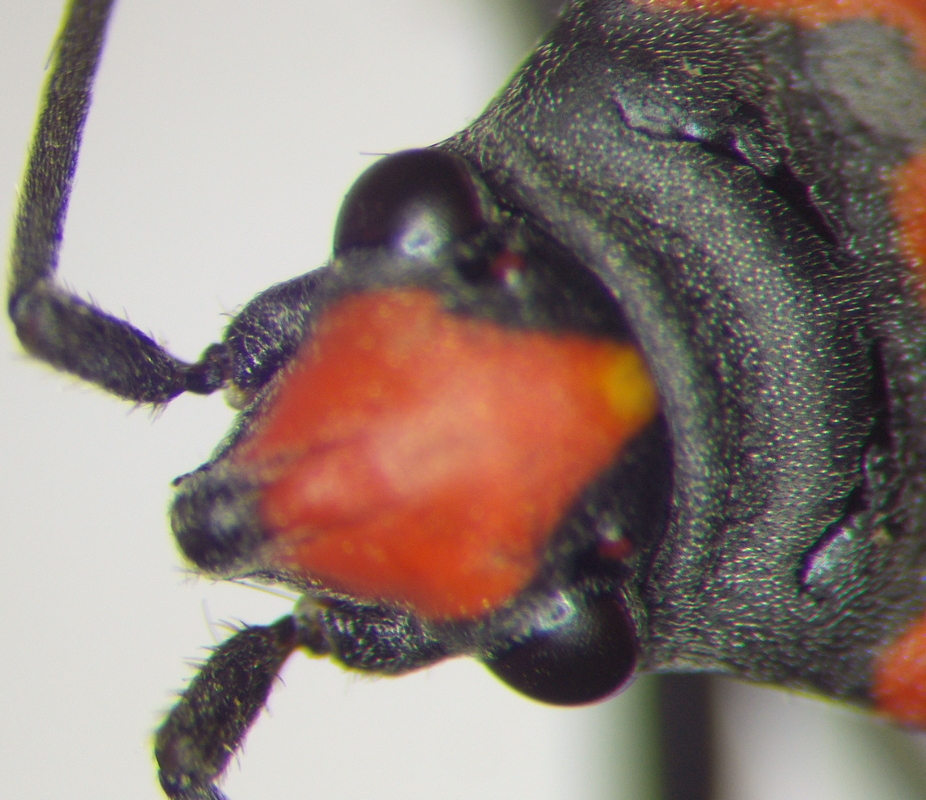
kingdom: Animalia
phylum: Arthropoda
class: Insecta
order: Hemiptera
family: Lygaeidae
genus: Lygaeus
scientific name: Lygaeus simulans
